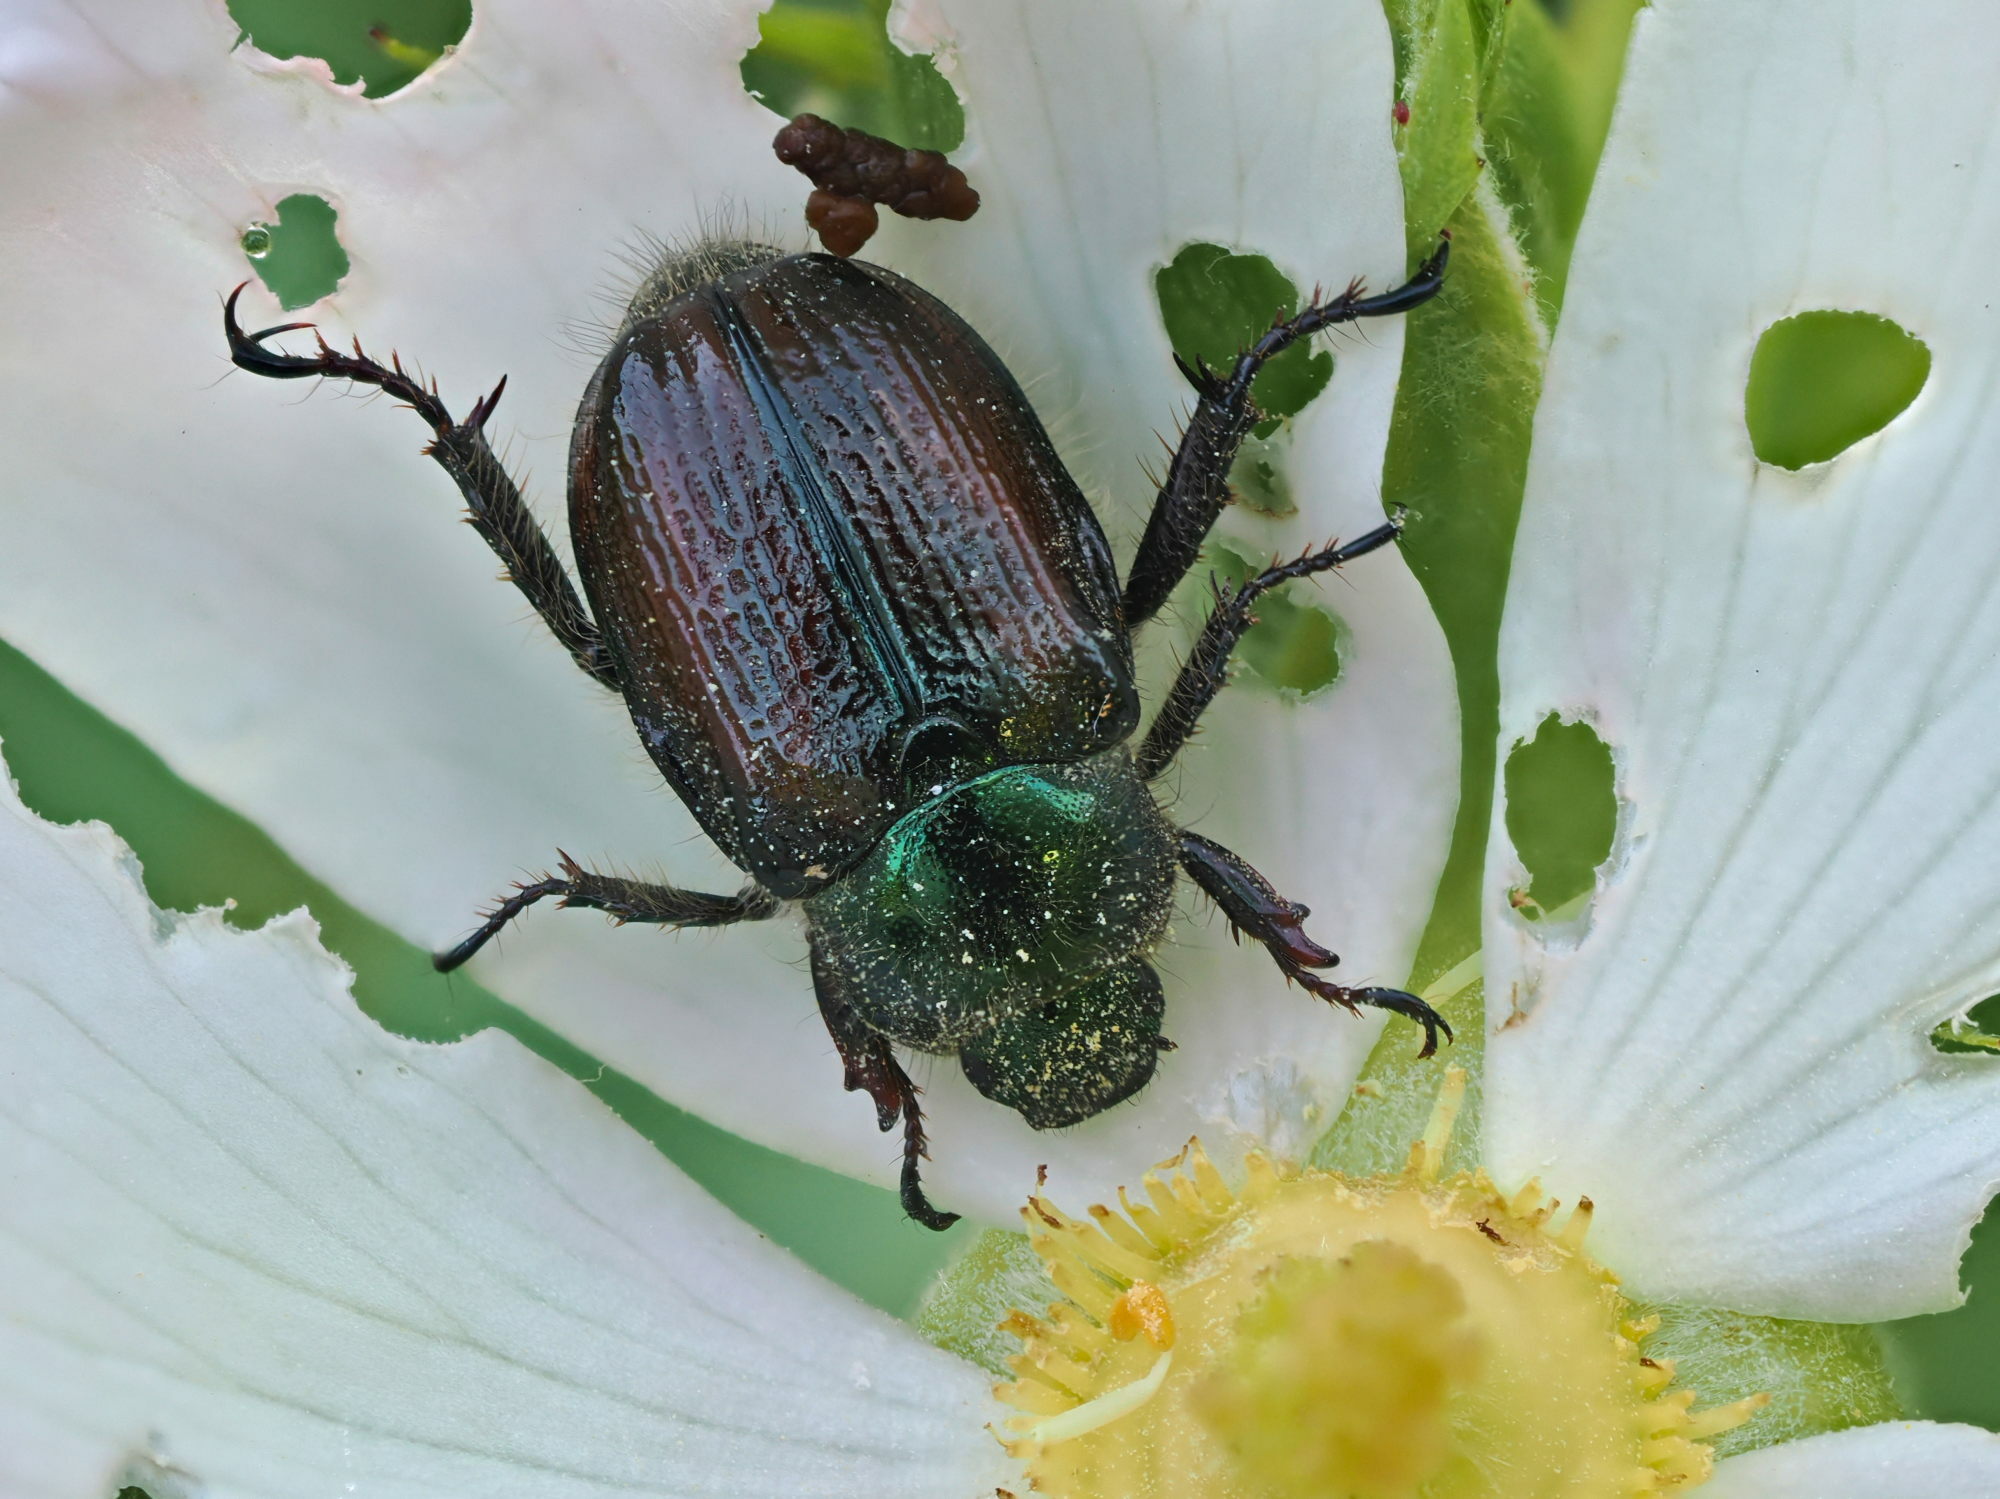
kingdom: Animalia
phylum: Arthropoda
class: Insecta
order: Coleoptera
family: Scarabaeidae
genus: Phyllopertha
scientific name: Phyllopertha horticola
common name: Garden chafer
